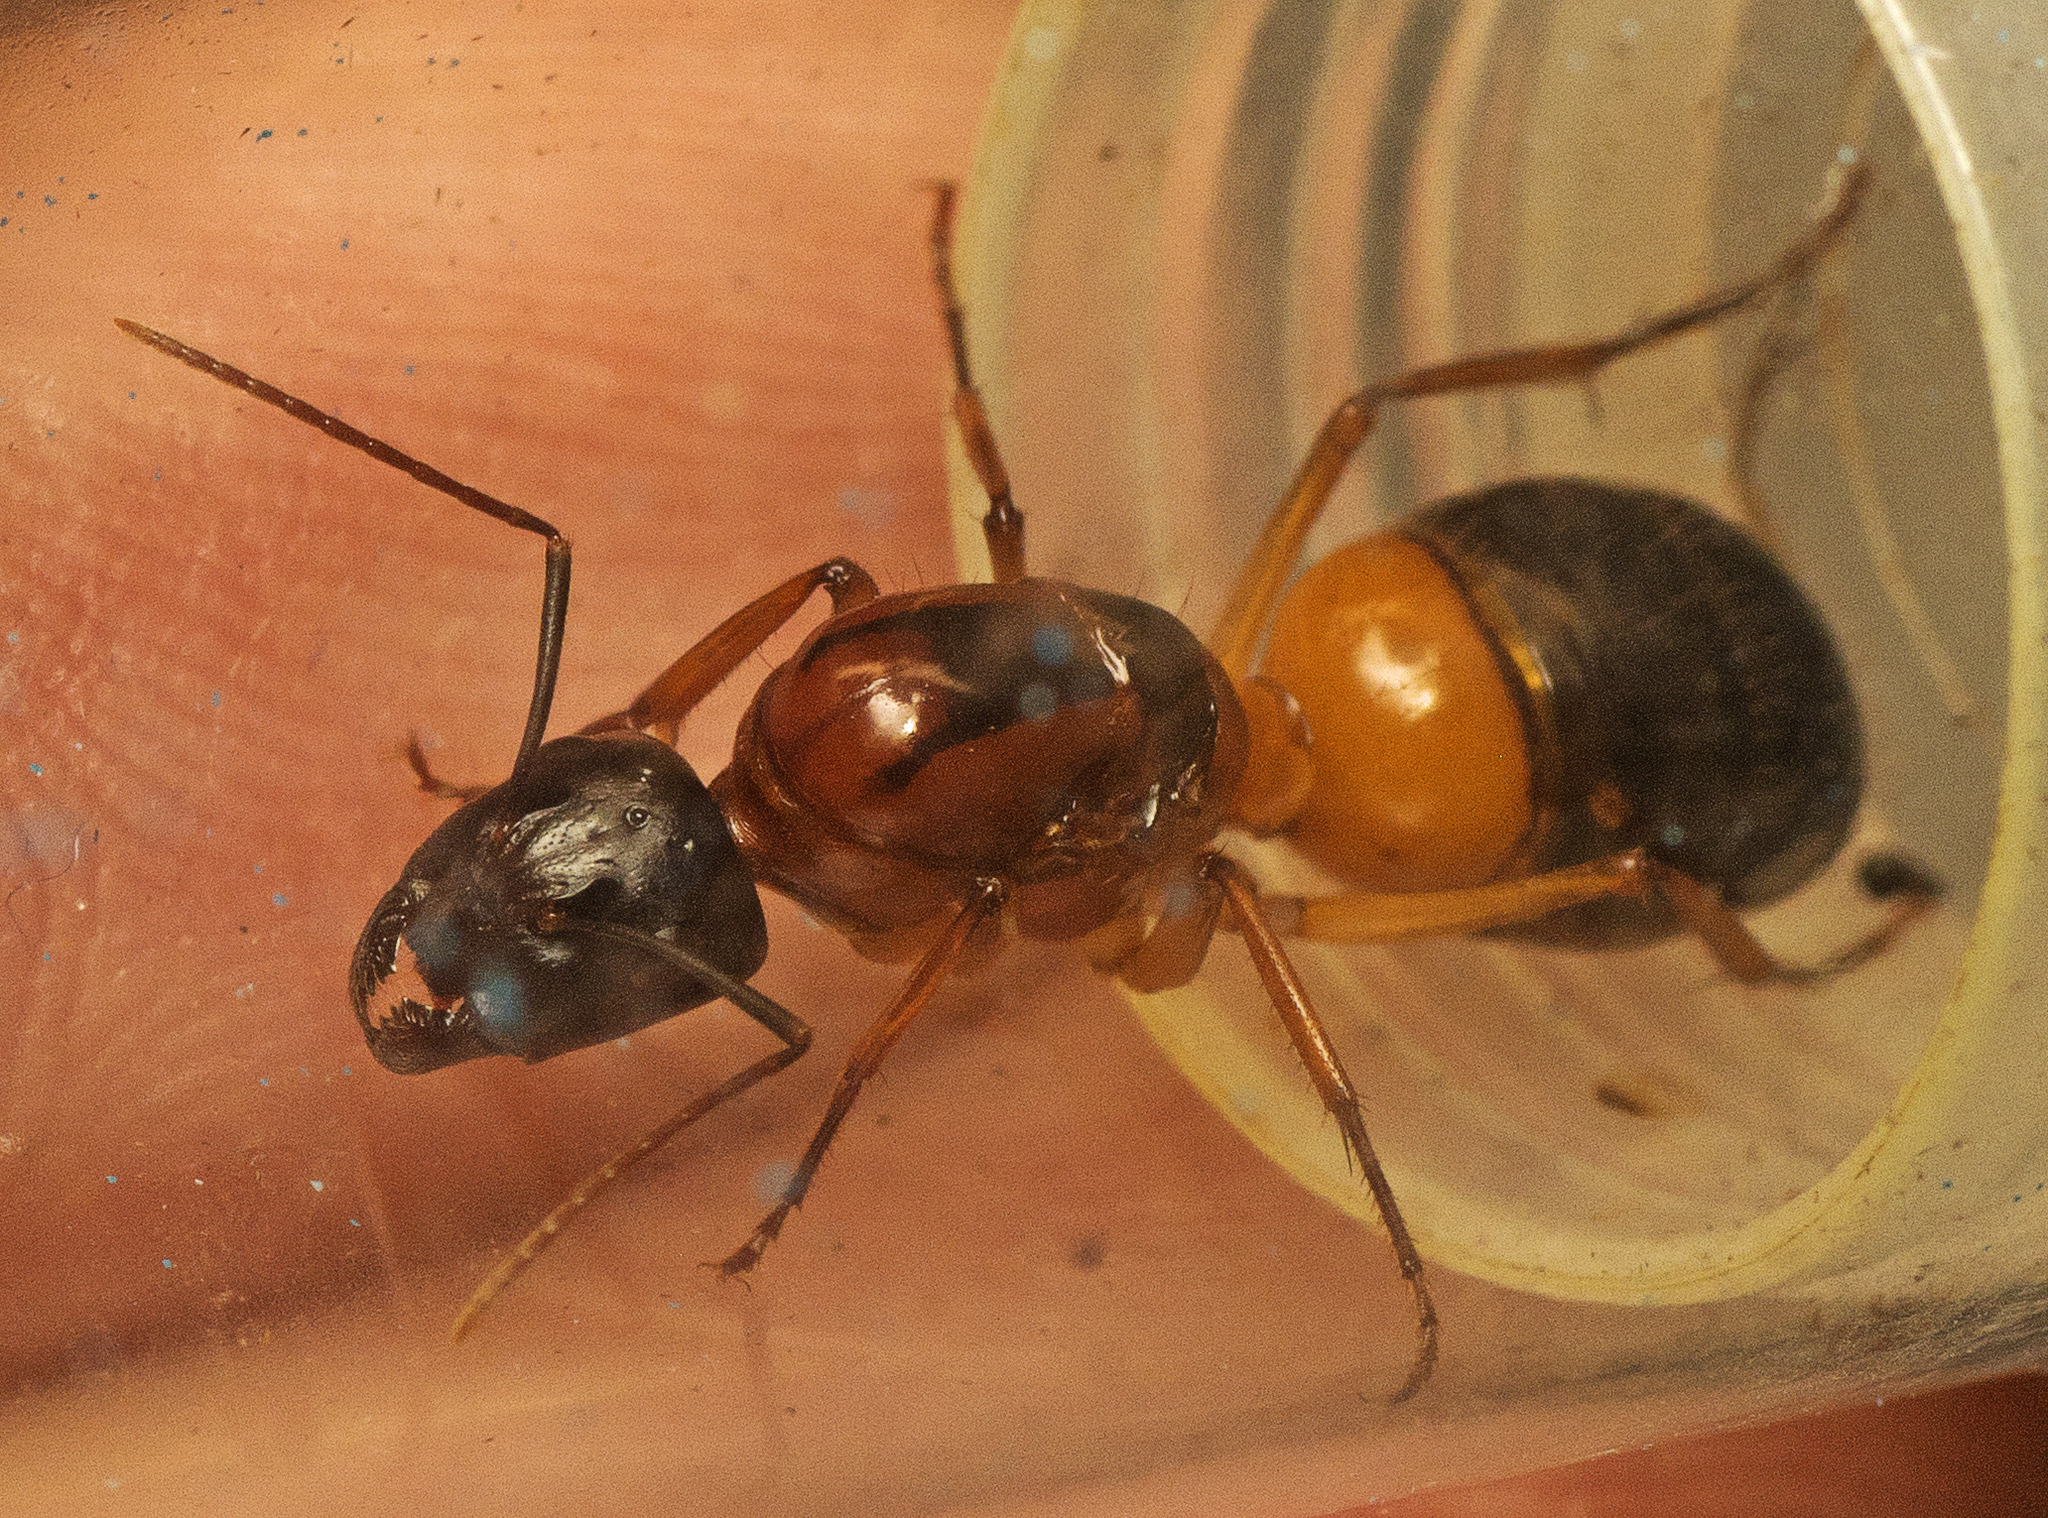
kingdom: Animalia
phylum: Arthropoda
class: Insecta
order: Hymenoptera
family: Formicidae
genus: Camponotus
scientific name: Camponotus consobrinus
